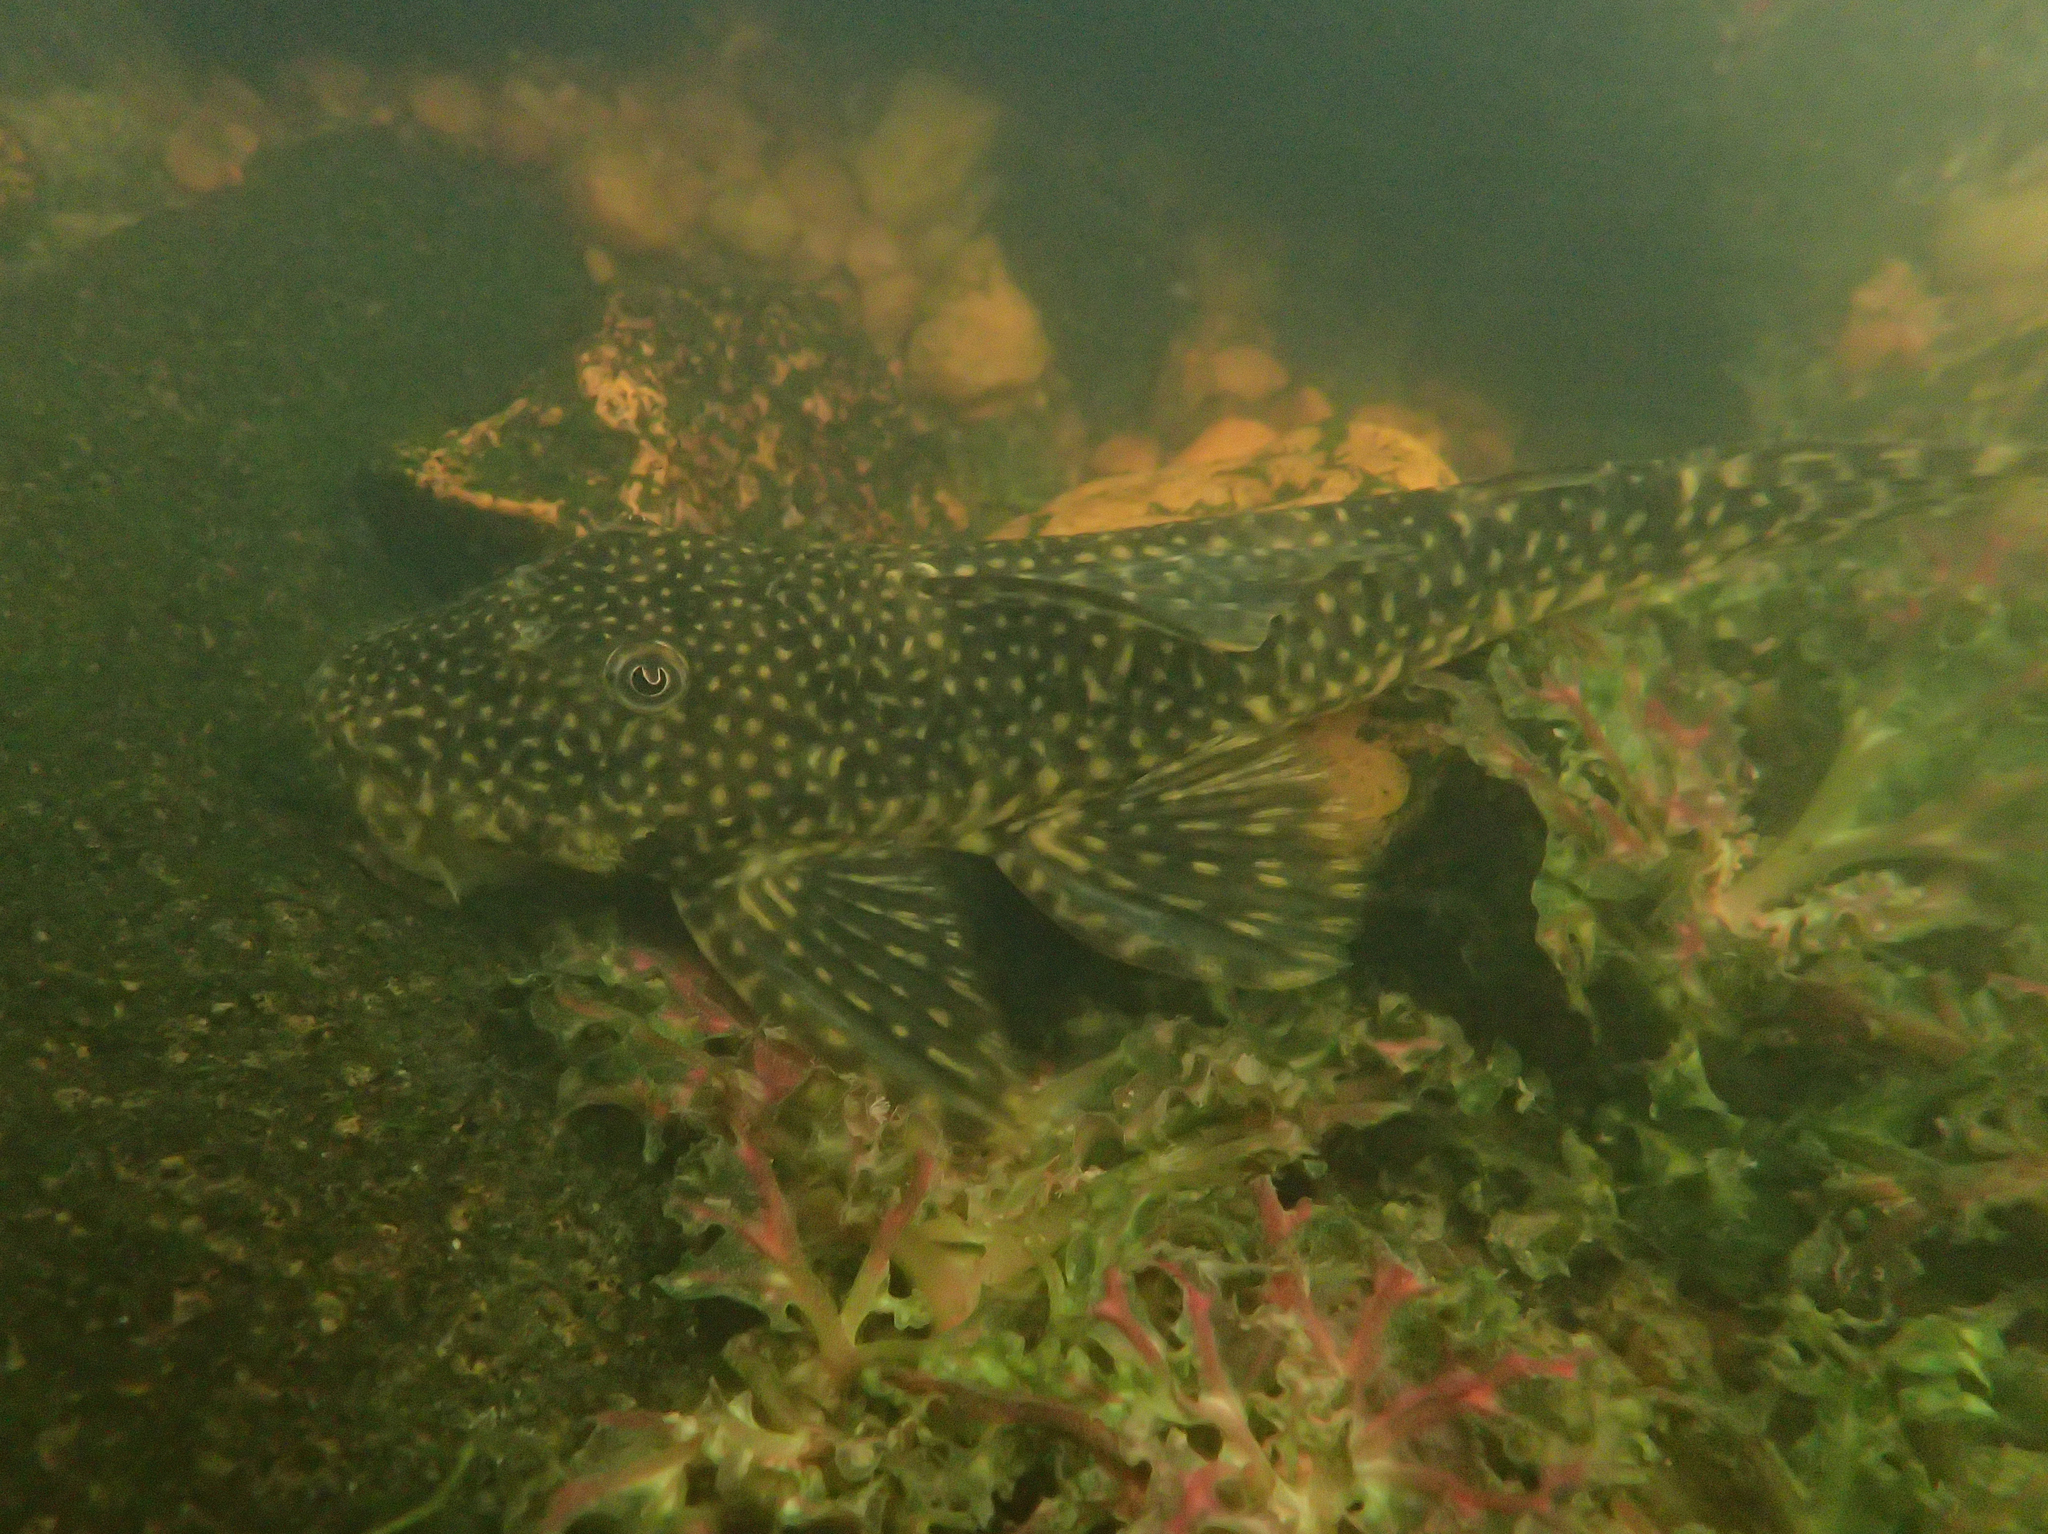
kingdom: Animalia
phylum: Chordata
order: Siluriformes
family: Loricariidae
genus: Guyanancistrus
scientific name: Guyanancistrus brevispinis
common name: Suckermouth catfish
